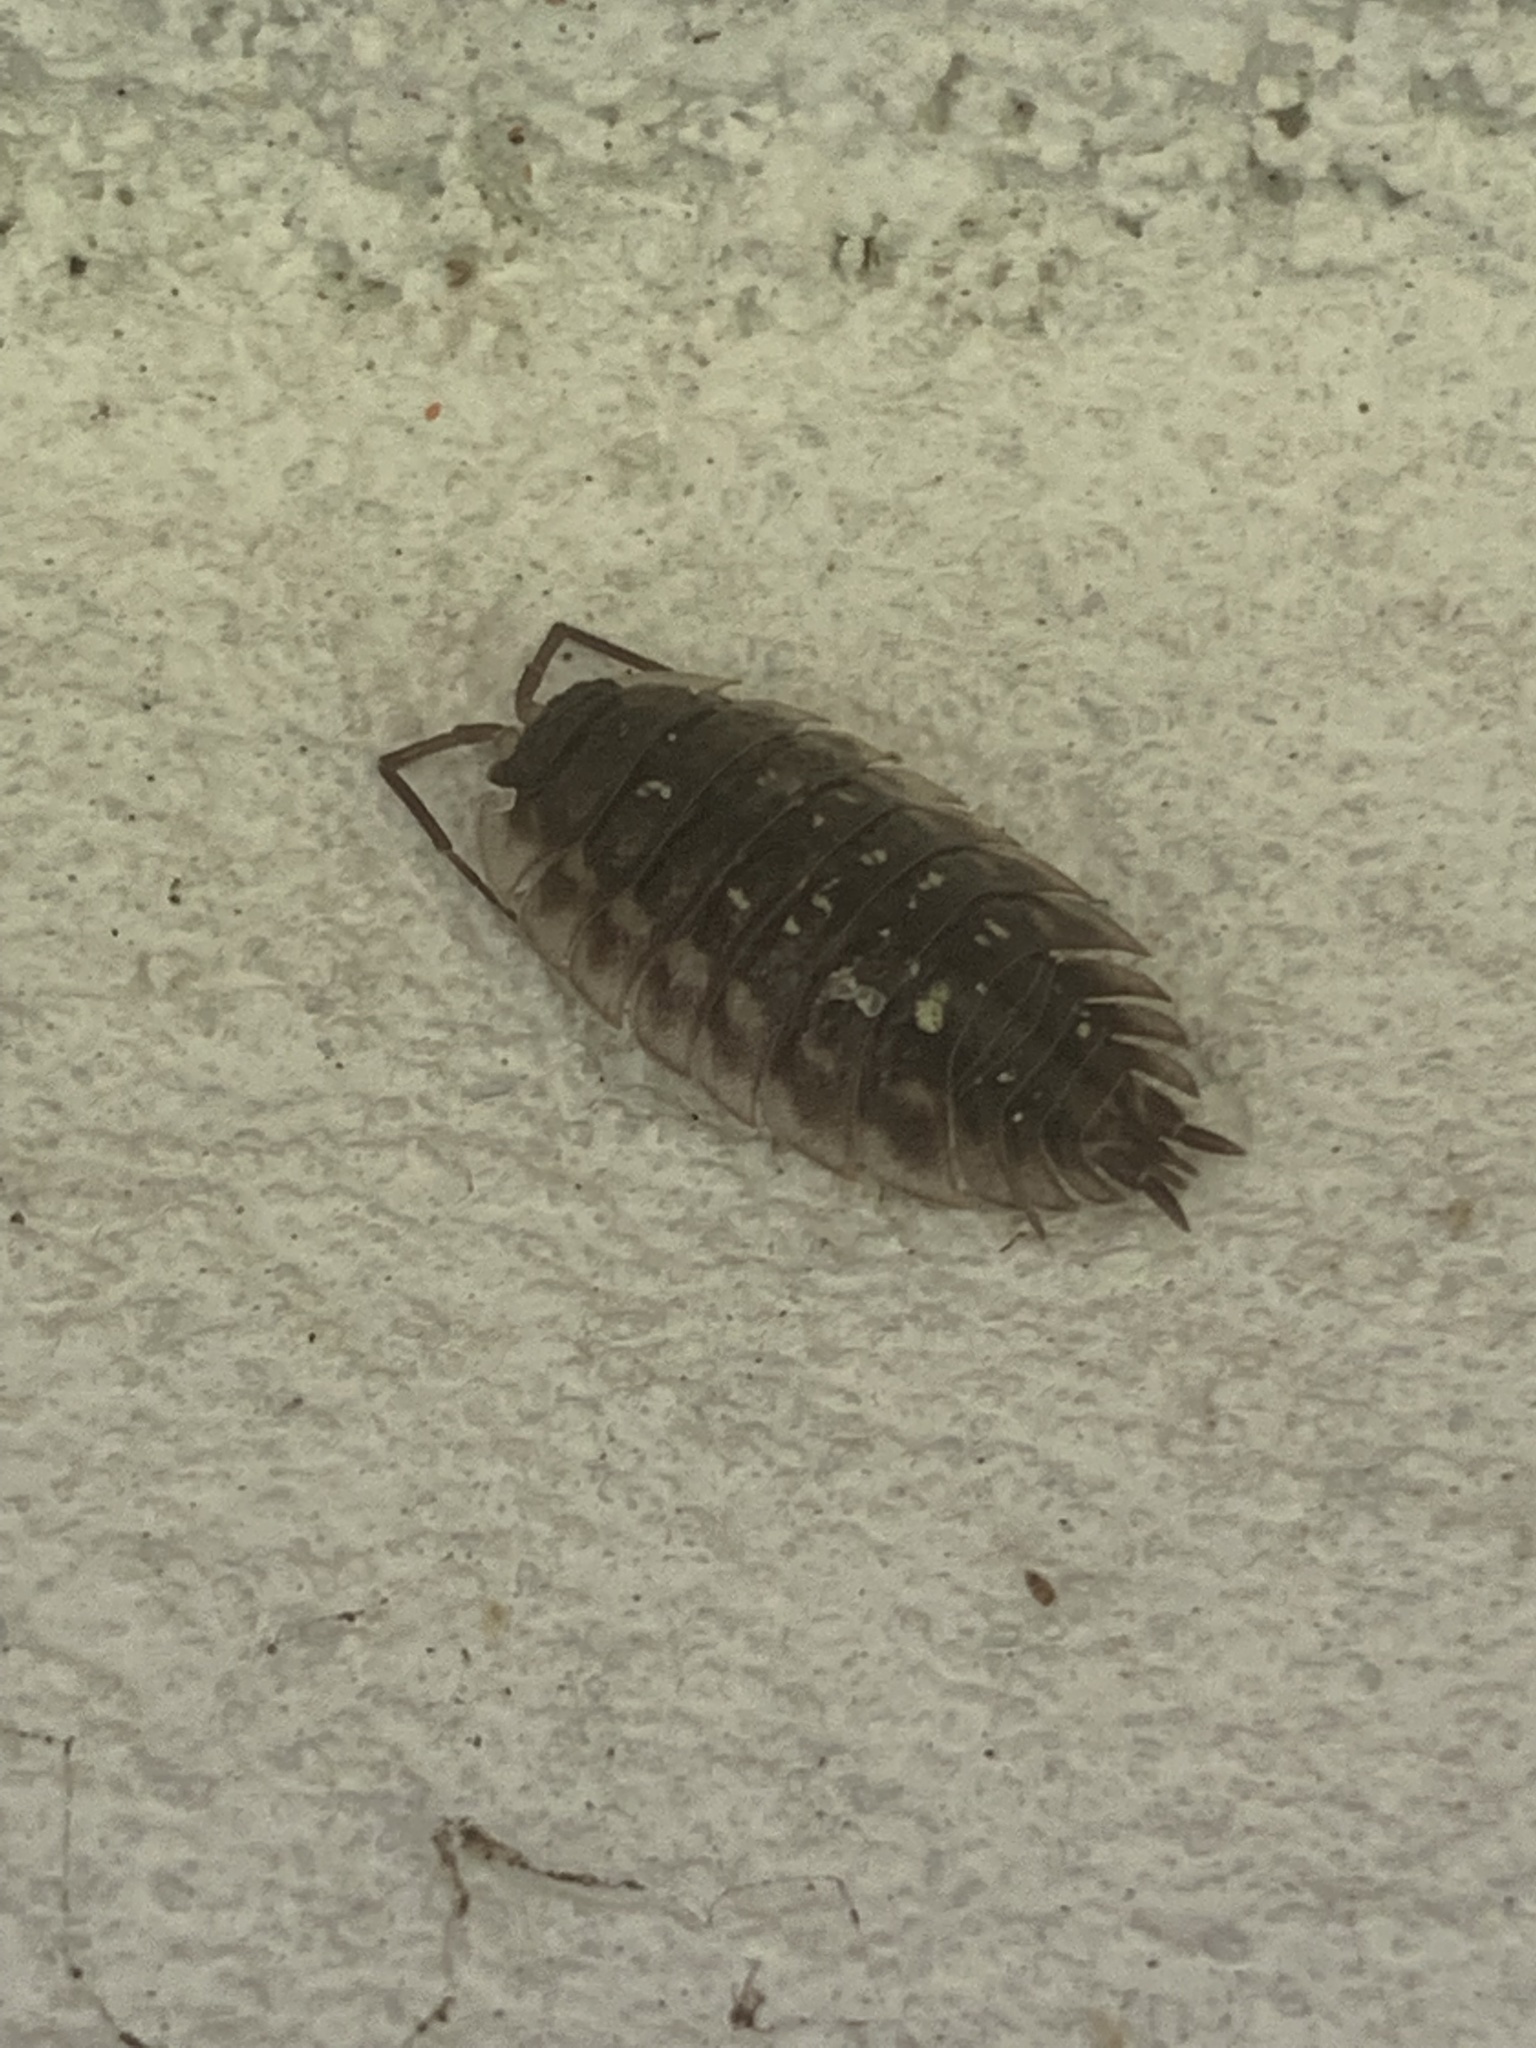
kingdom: Animalia
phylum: Arthropoda
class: Malacostraca
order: Isopoda
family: Oniscidae
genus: Oniscus
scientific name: Oniscus asellus
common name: Common shiny woodlouse
